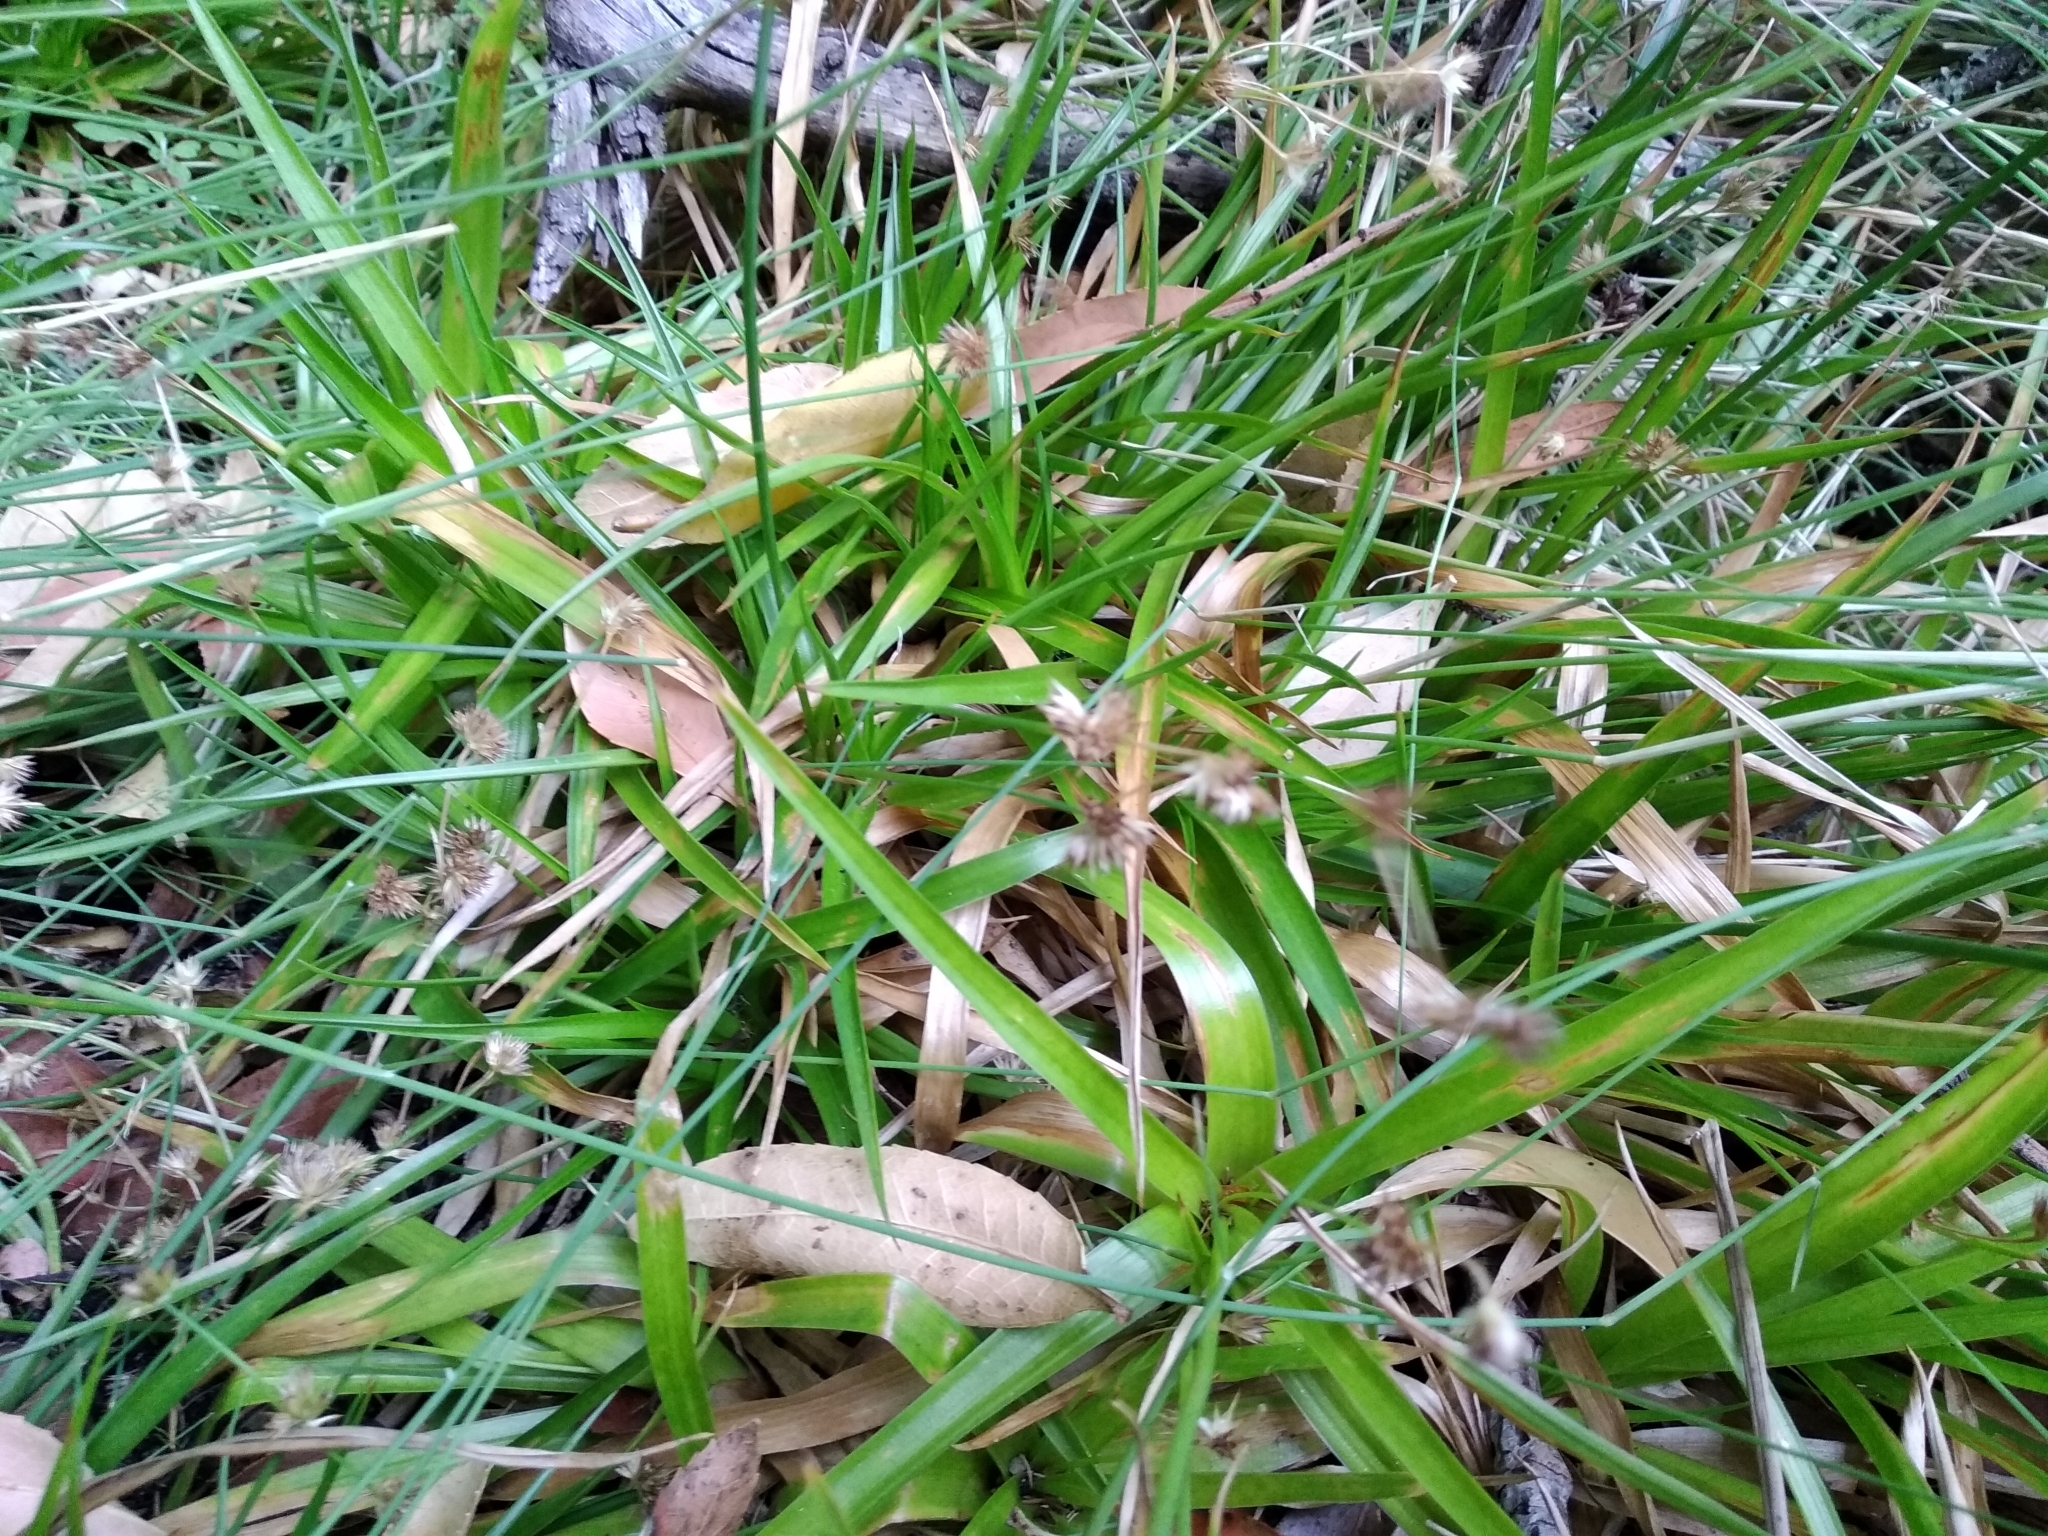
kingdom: Plantae
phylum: Tracheophyta
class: Liliopsida
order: Poales
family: Juncaceae
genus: Juncus
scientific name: Juncus lomatophyllus
